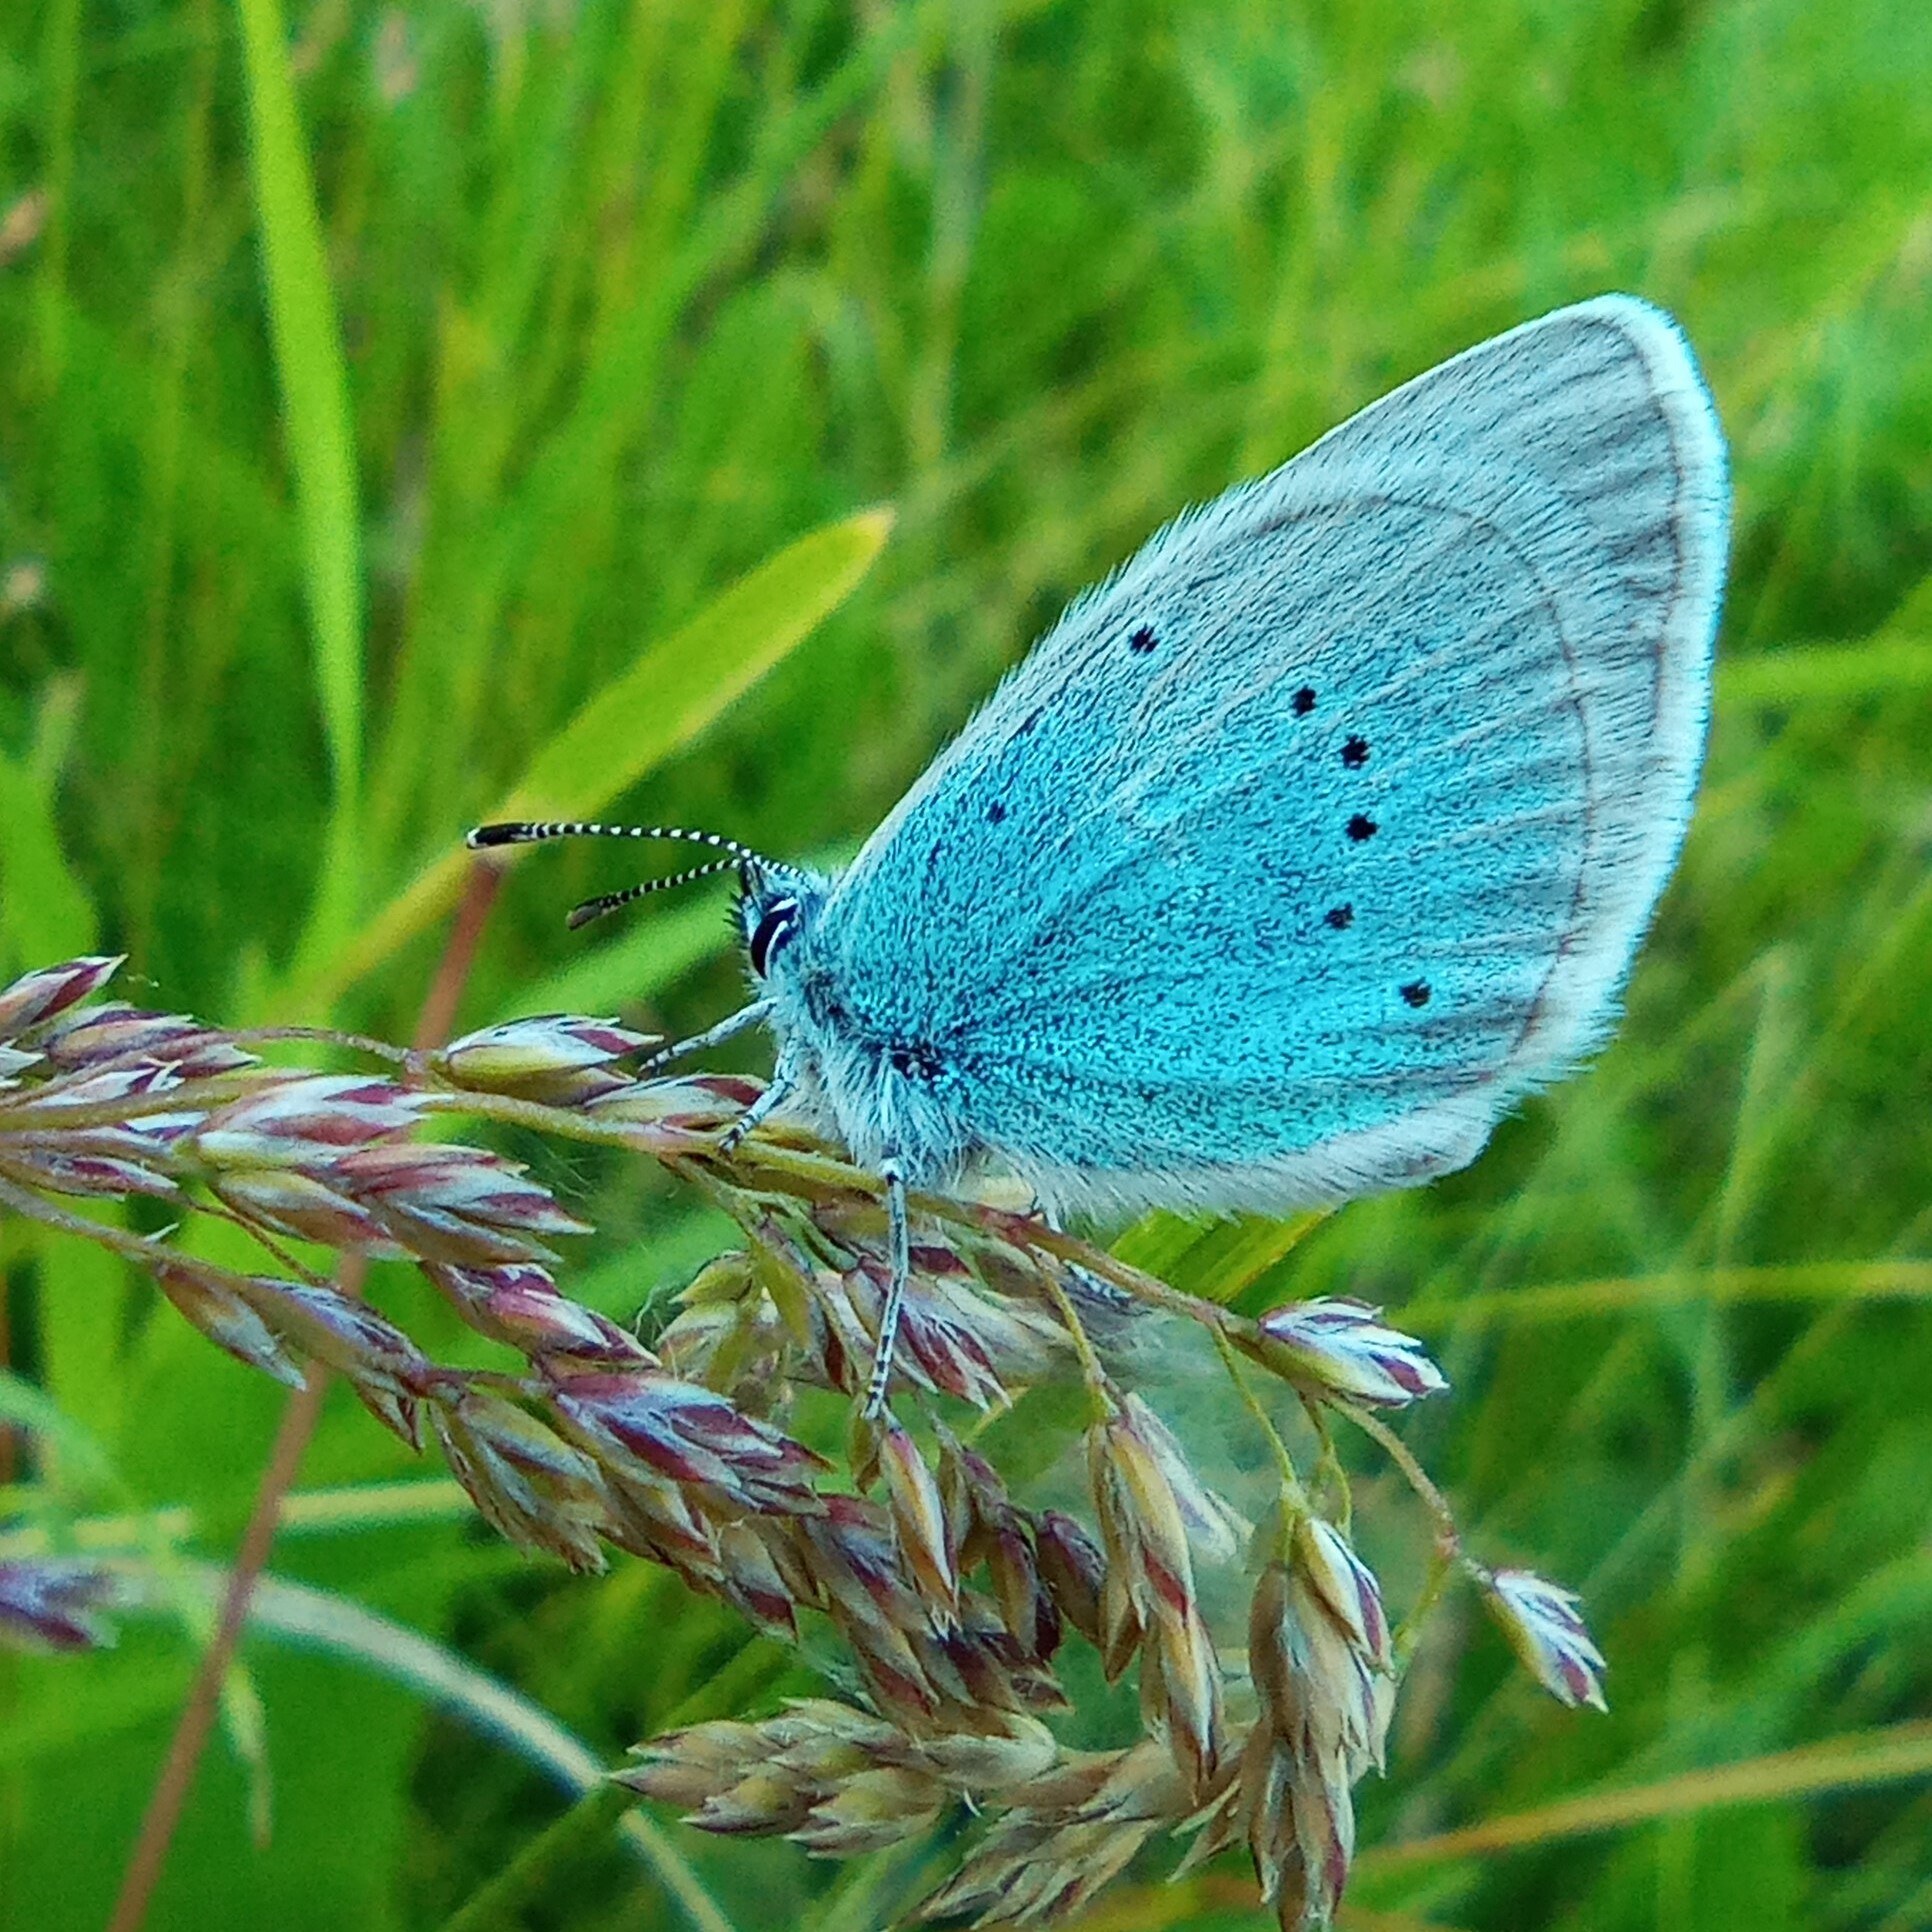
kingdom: Animalia
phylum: Arthropoda
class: Insecta
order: Lepidoptera
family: Lycaenidae
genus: Glaucopsyche
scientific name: Glaucopsyche alexis
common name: Green-underside blue
